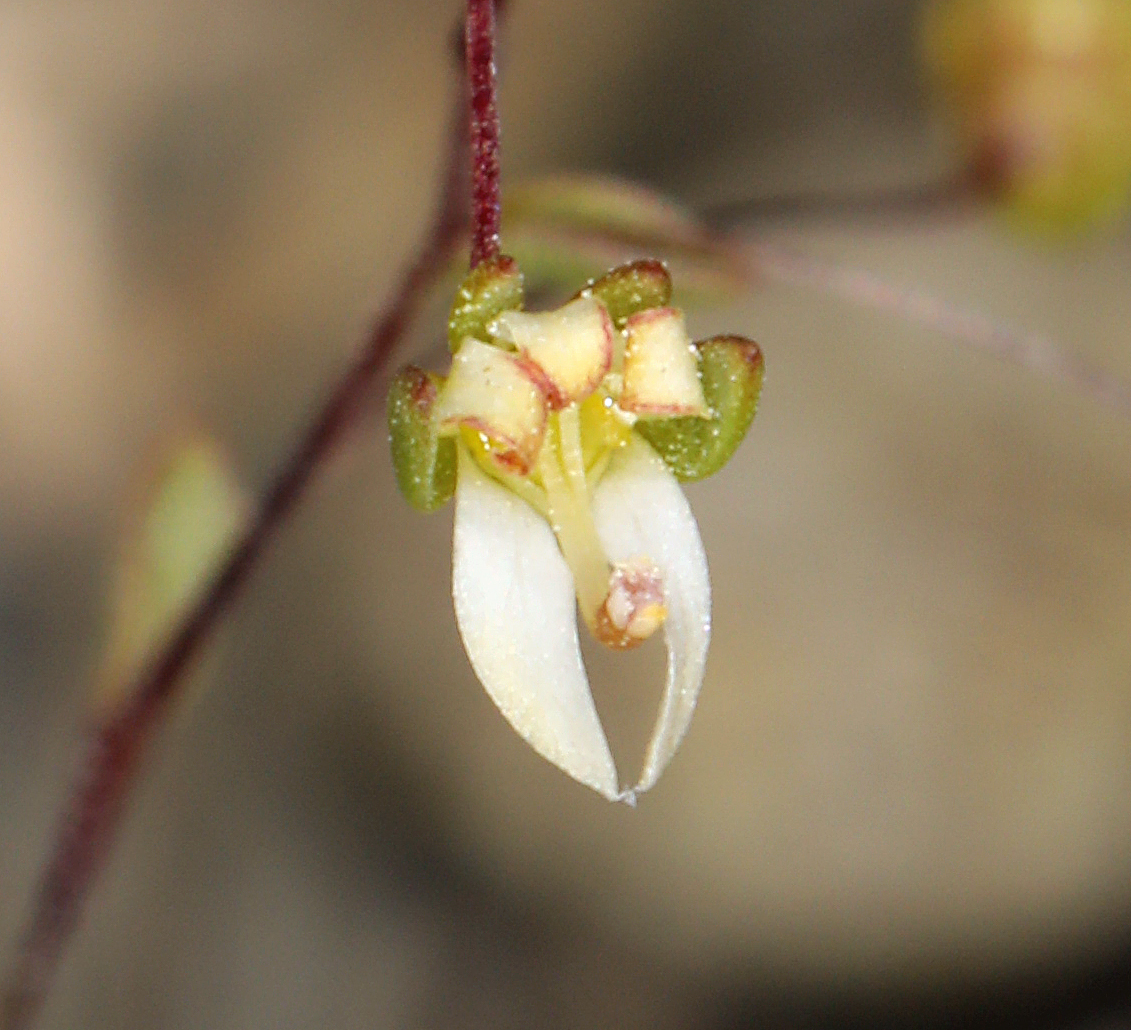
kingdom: Plantae
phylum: Tracheophyta
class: Magnoliopsida
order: Asterales
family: Campanulaceae
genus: Nemacladus
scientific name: Nemacladus morefieldii
